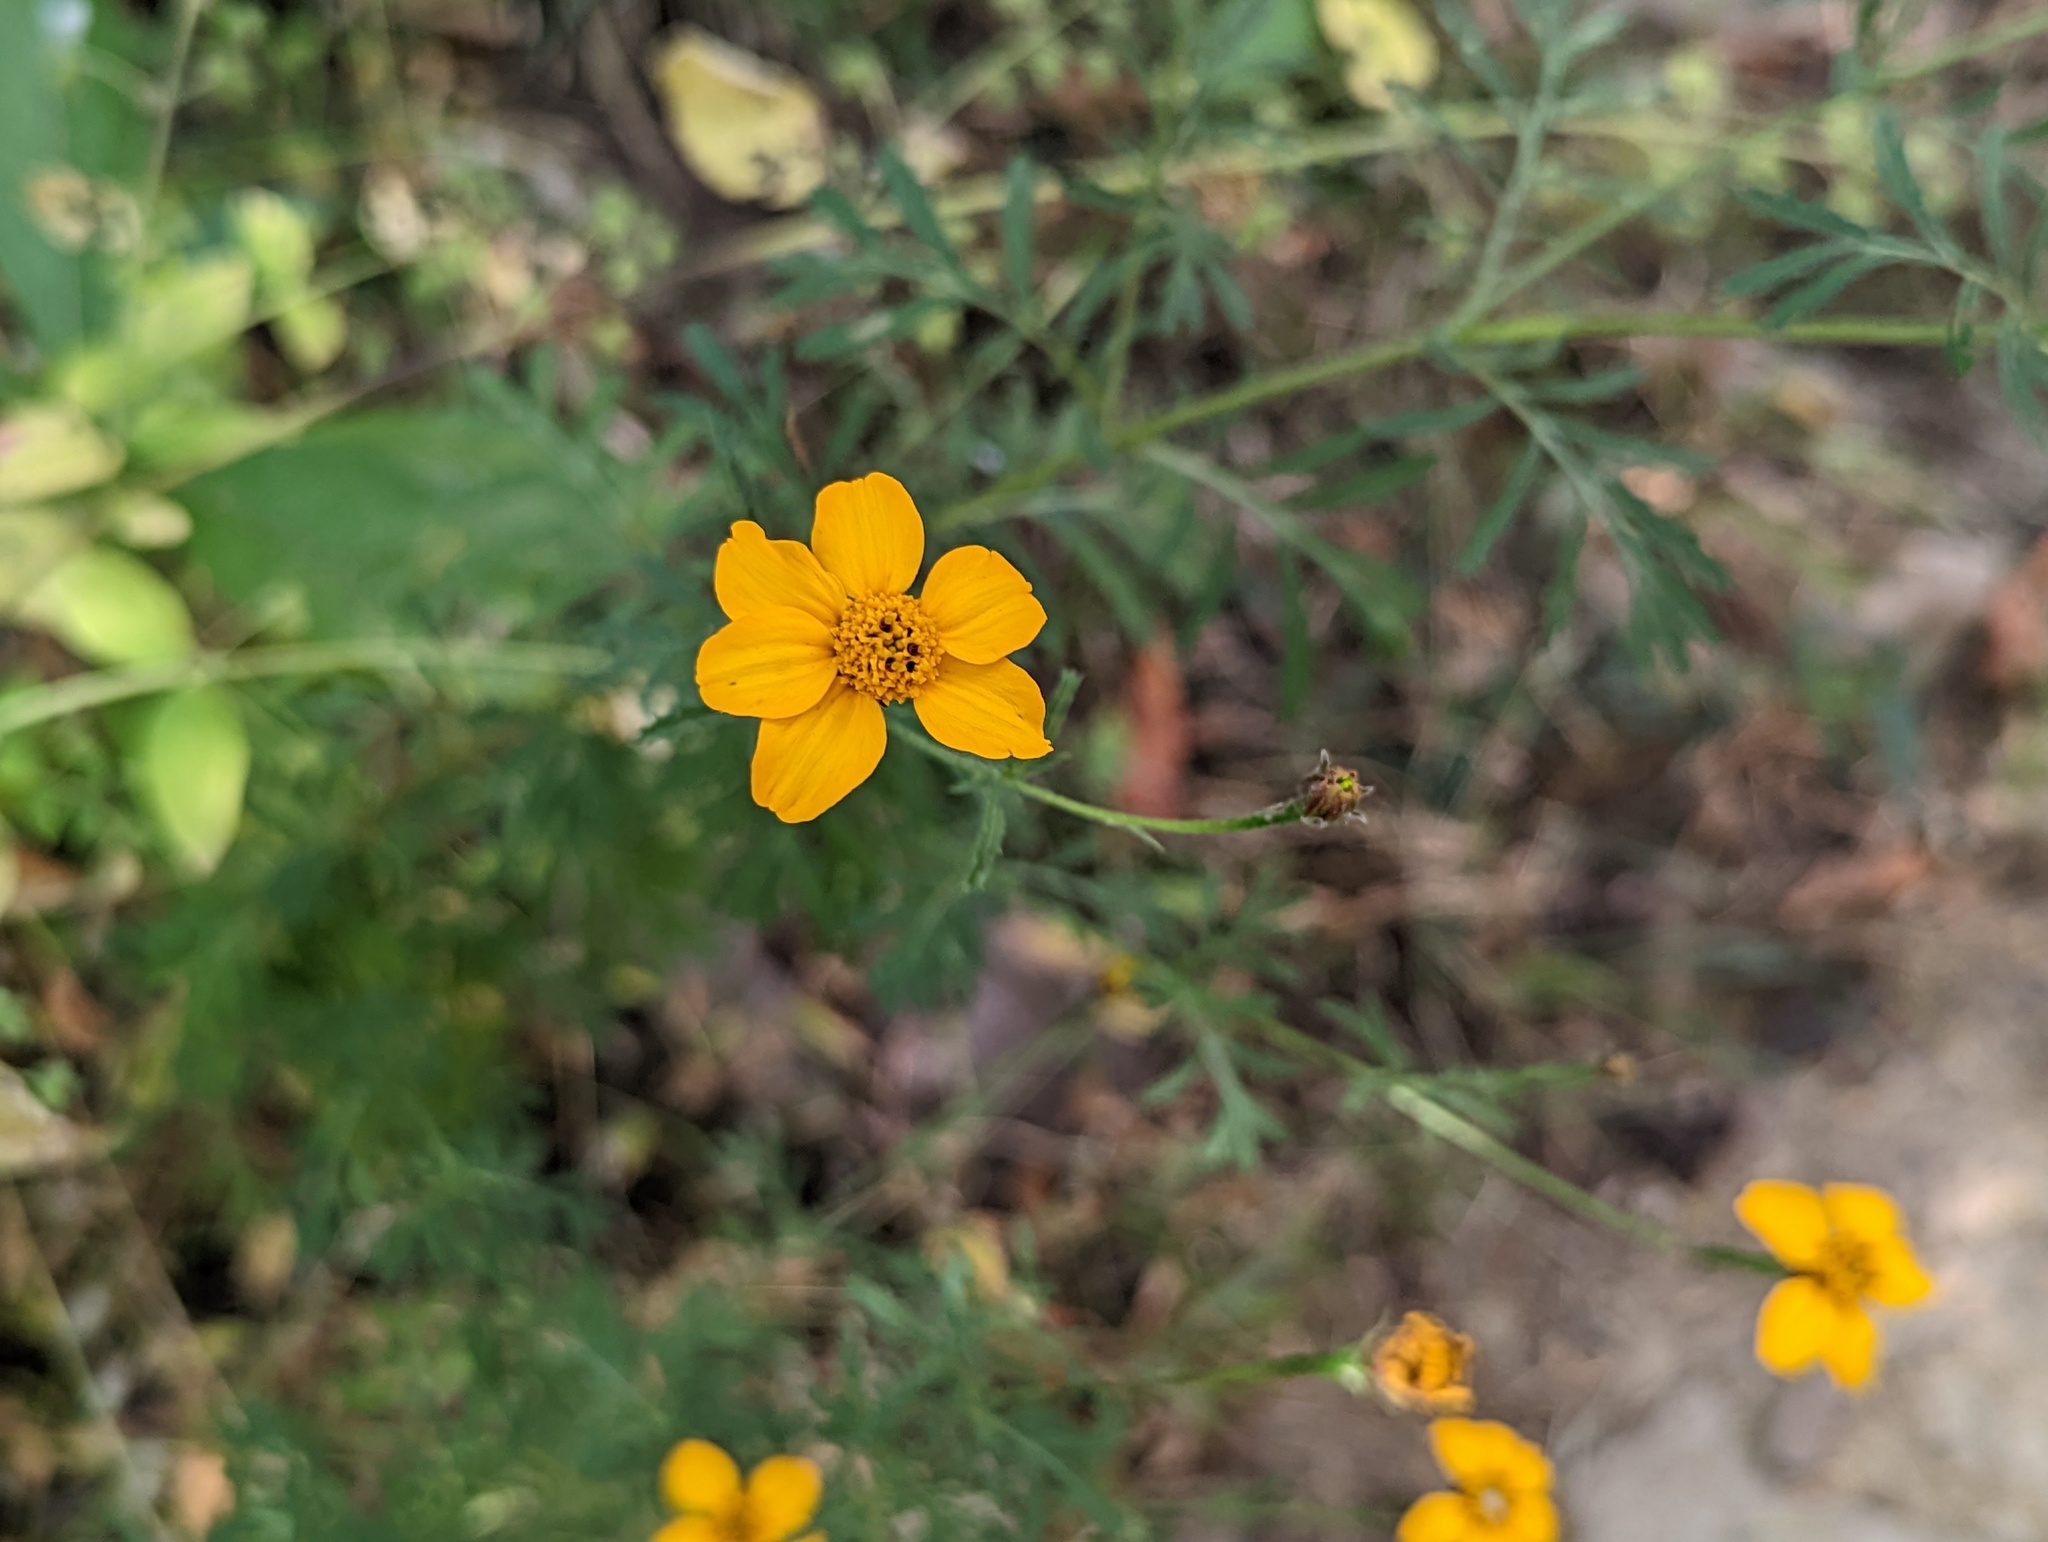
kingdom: Plantae
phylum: Tracheophyta
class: Magnoliopsida
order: Asterales
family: Asteraceae
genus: Dyssodia
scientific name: Dyssodia tagetiflora
